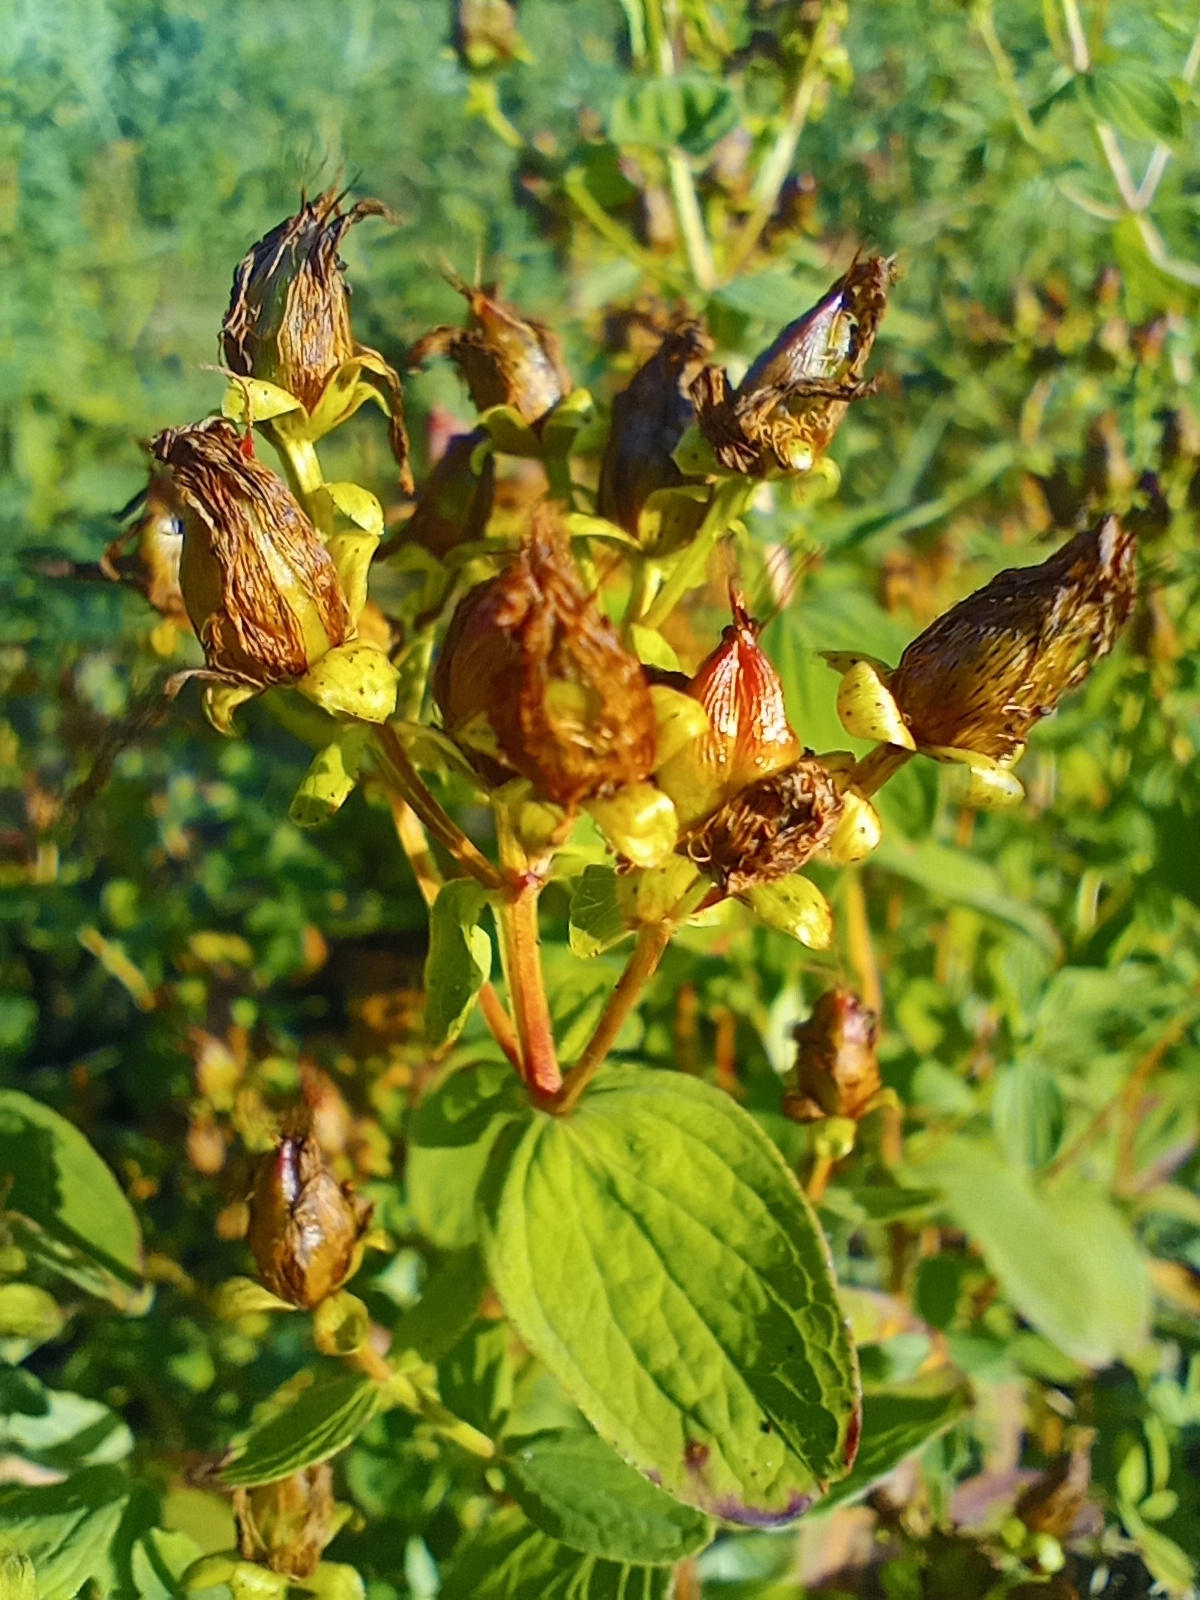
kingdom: Plantae
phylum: Tracheophyta
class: Magnoliopsida
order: Malpighiales
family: Hypericaceae
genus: Hypericum
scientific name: Hypericum maculatum
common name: Imperforate st. john's-wort
